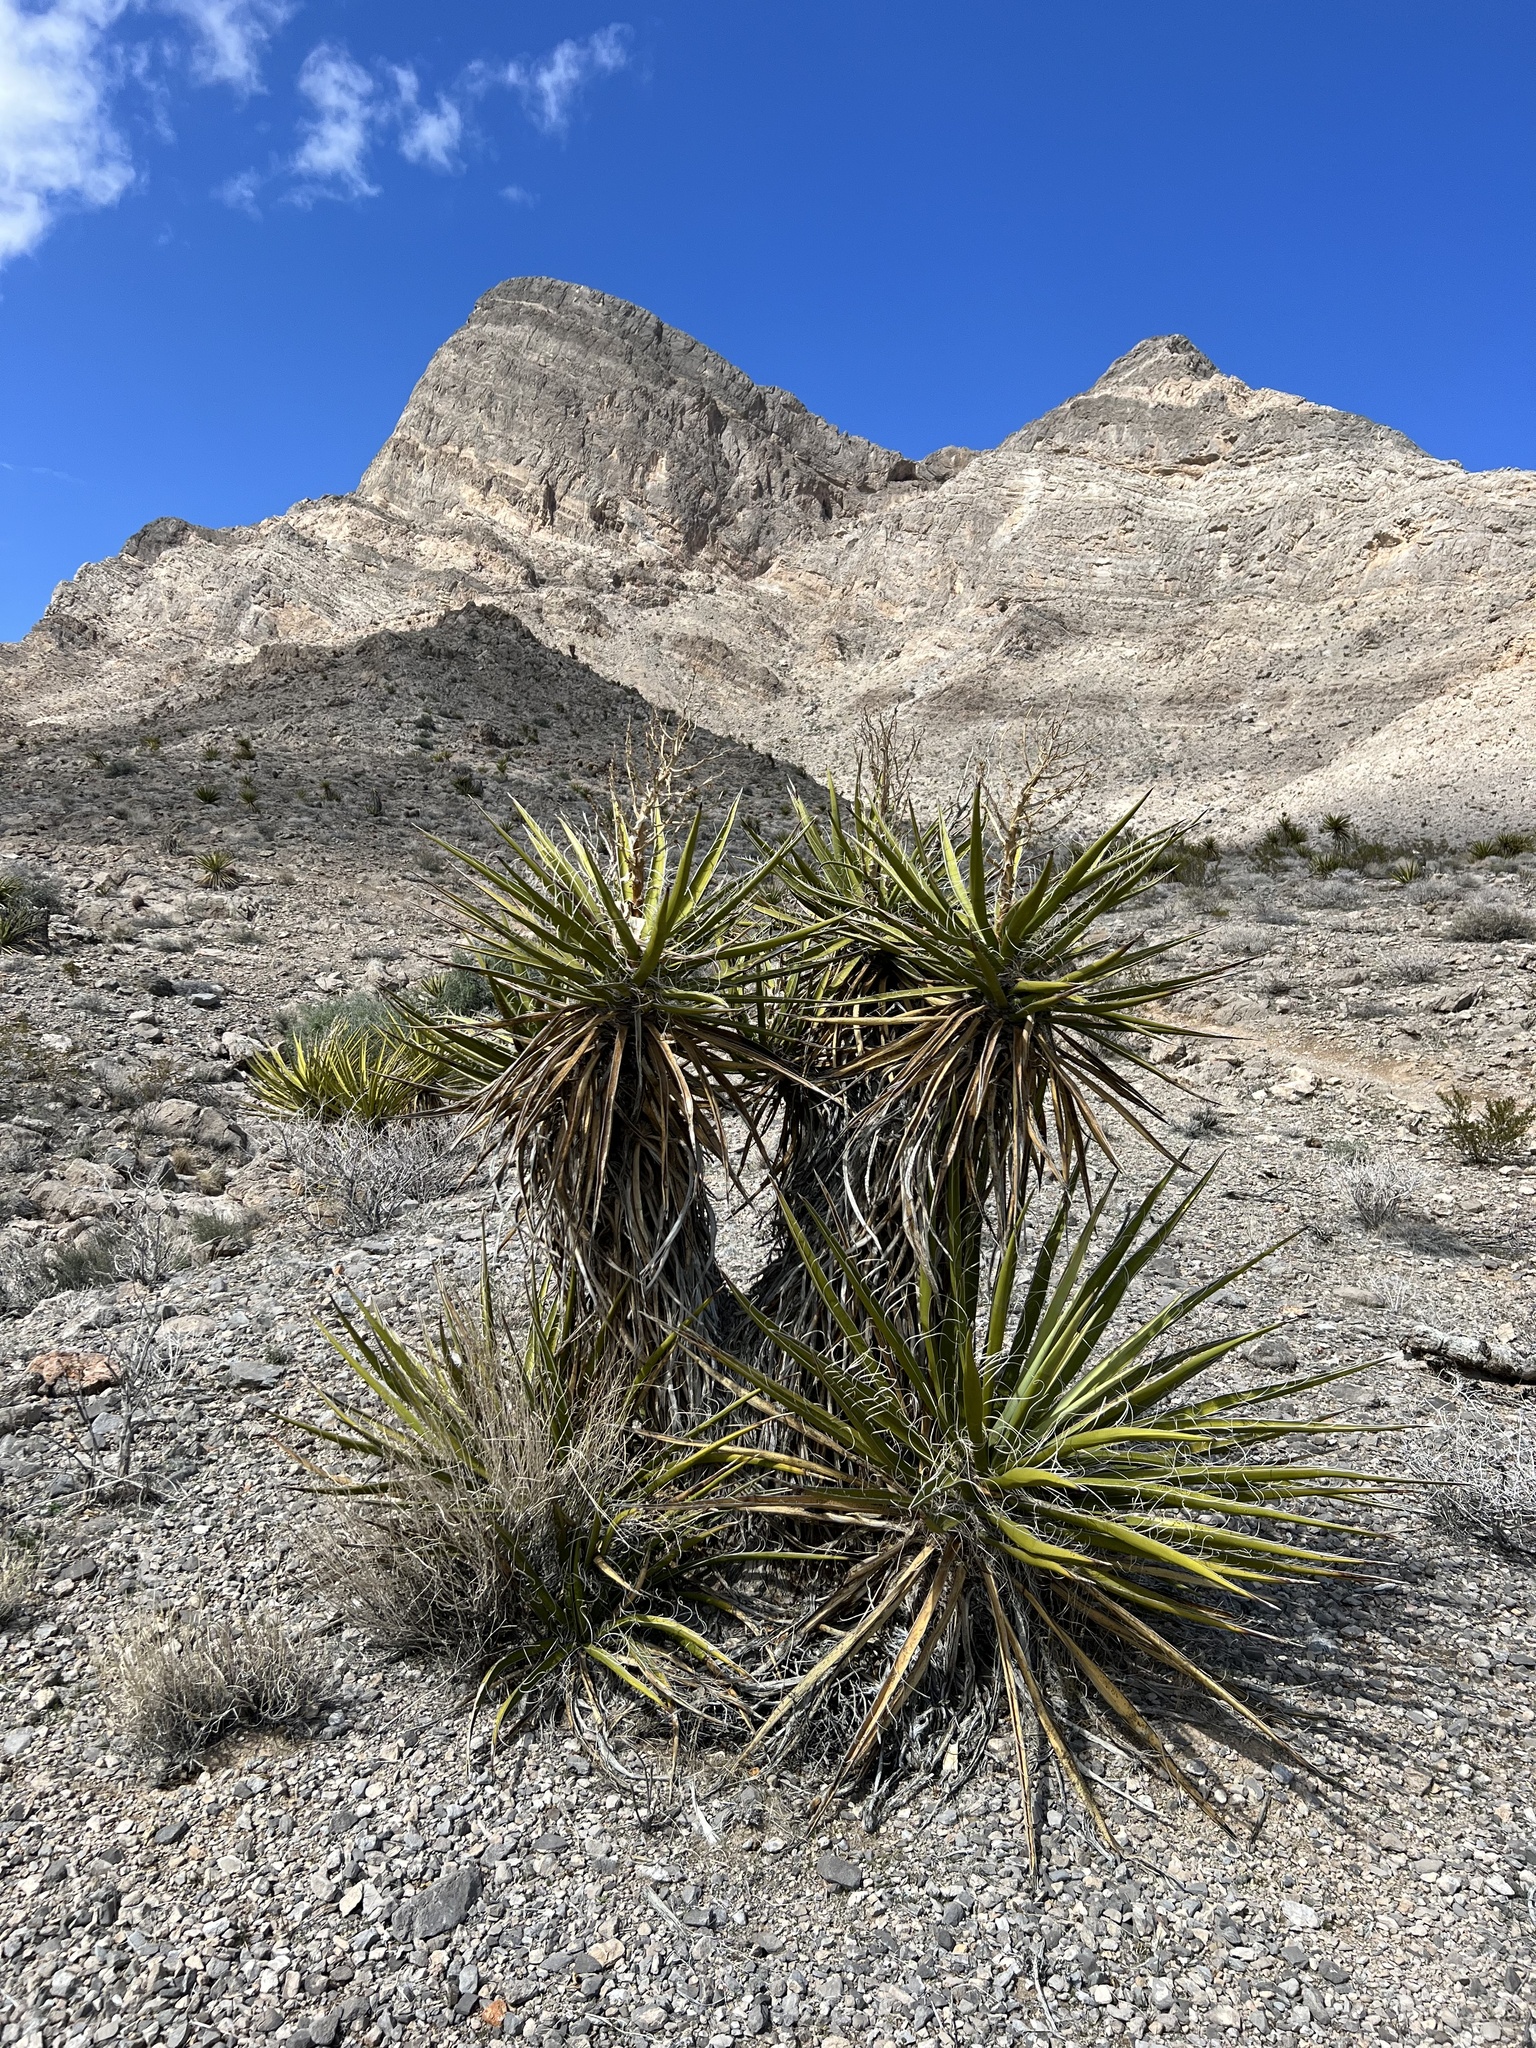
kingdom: Plantae
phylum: Tracheophyta
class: Liliopsida
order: Asparagales
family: Asparagaceae
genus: Yucca
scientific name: Yucca schidigera
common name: Mojave yucca
